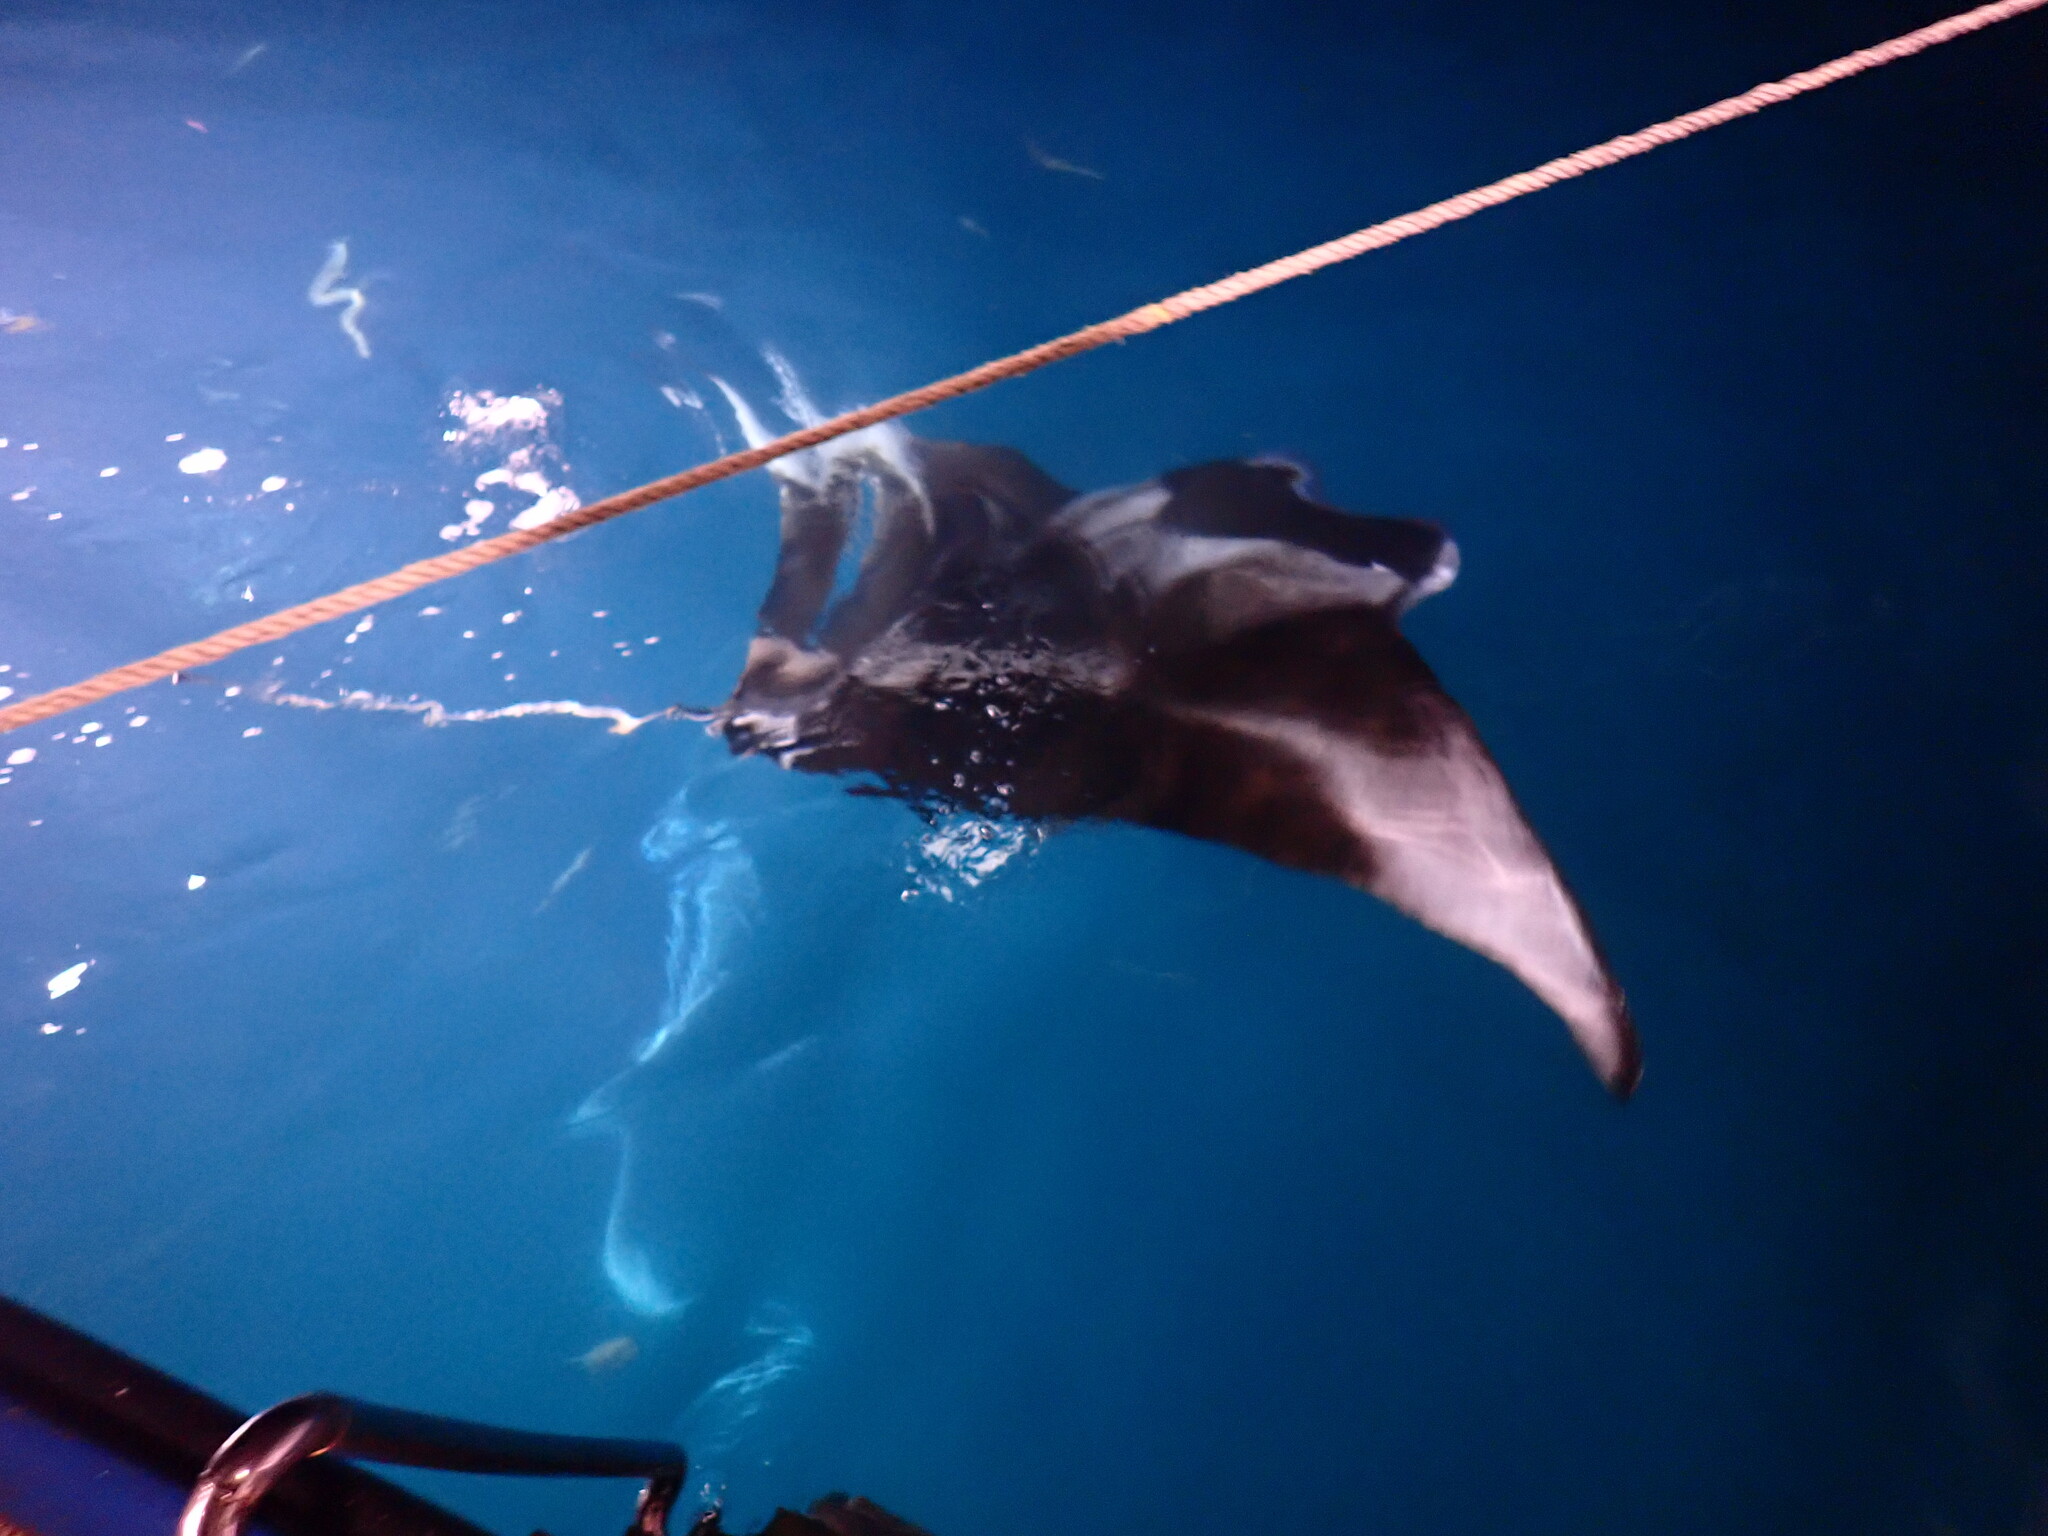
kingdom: Animalia
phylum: Chordata
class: Elasmobranchii
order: Myliobatiformes
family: Myliobatidae
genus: Mobula
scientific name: Mobula alfredi
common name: Reef manta ray
